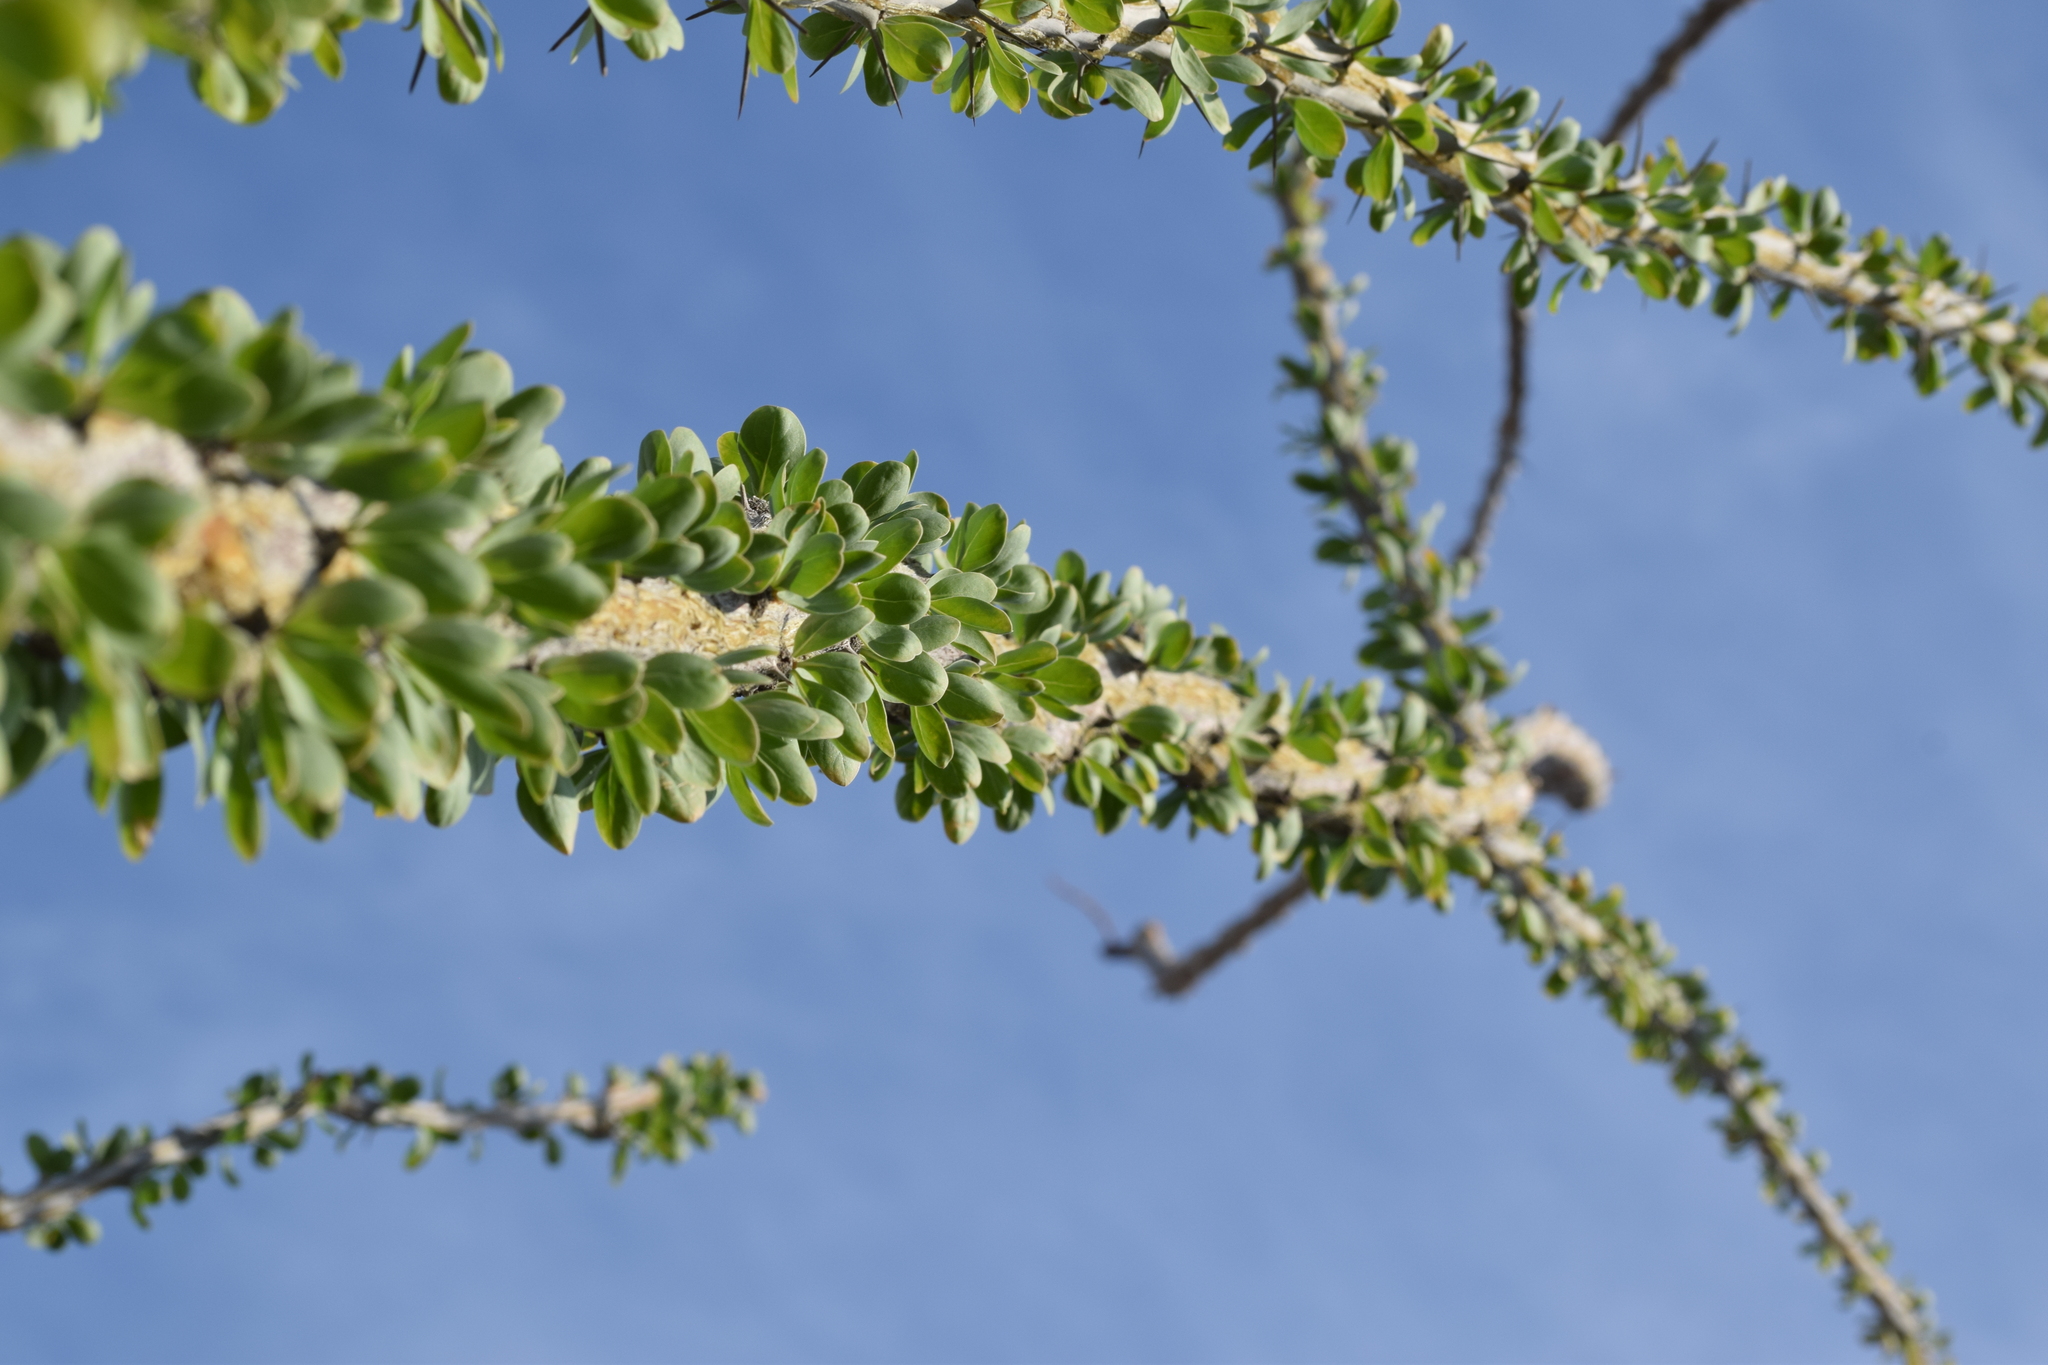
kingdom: Plantae
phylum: Tracheophyta
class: Magnoliopsida
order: Ericales
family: Fouquieriaceae
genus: Fouquieria
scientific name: Fouquieria splendens
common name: Vine-cactus
